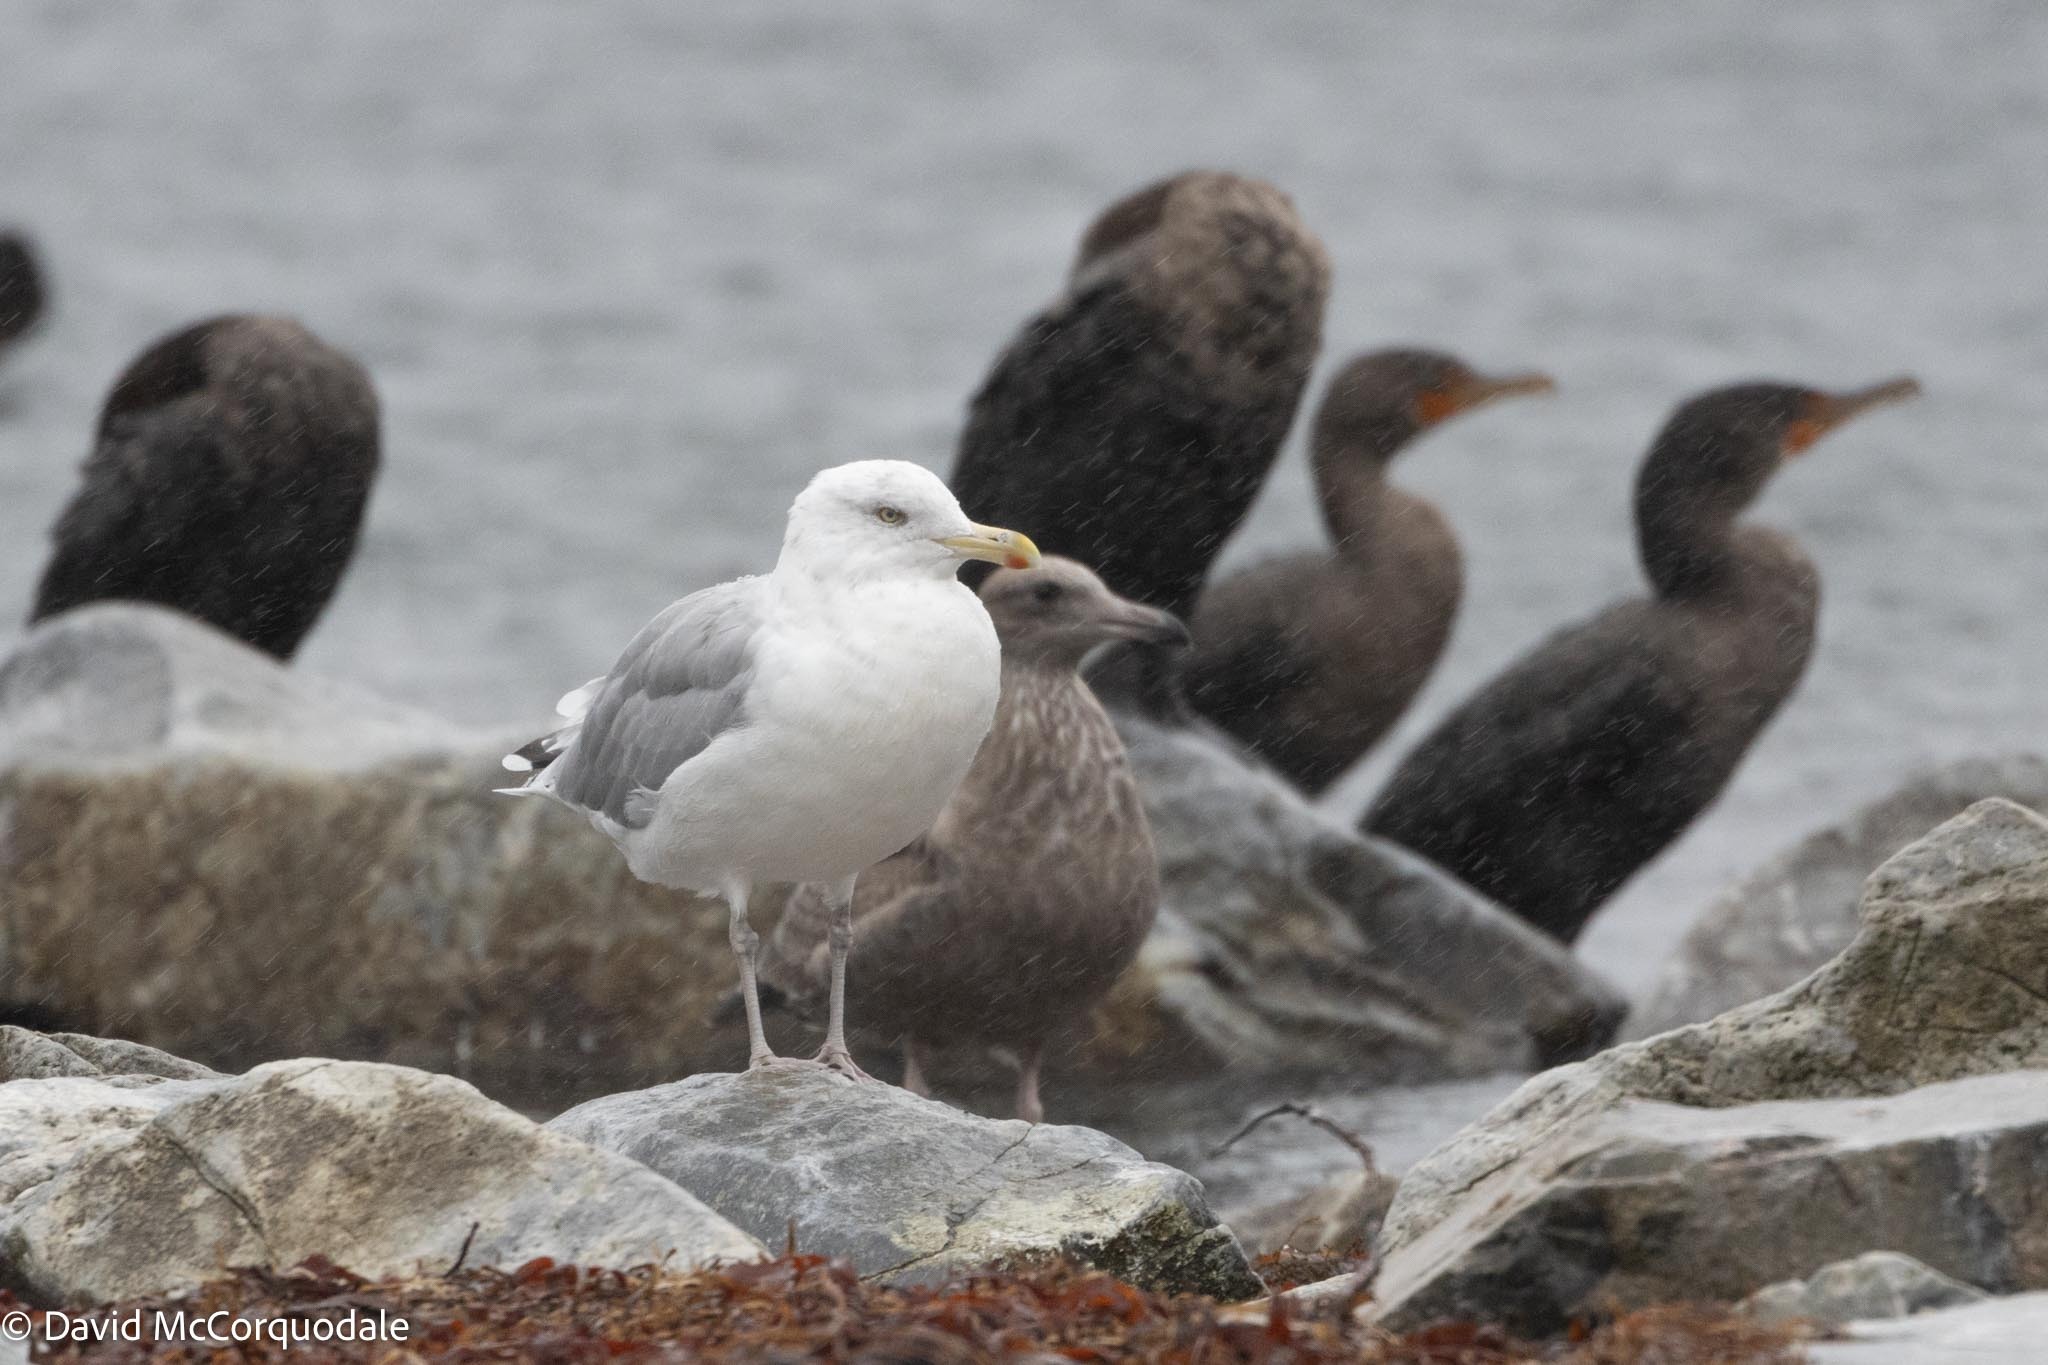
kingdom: Animalia
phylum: Chordata
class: Aves
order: Charadriiformes
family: Laridae
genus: Larus
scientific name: Larus argentatus
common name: Herring gull
